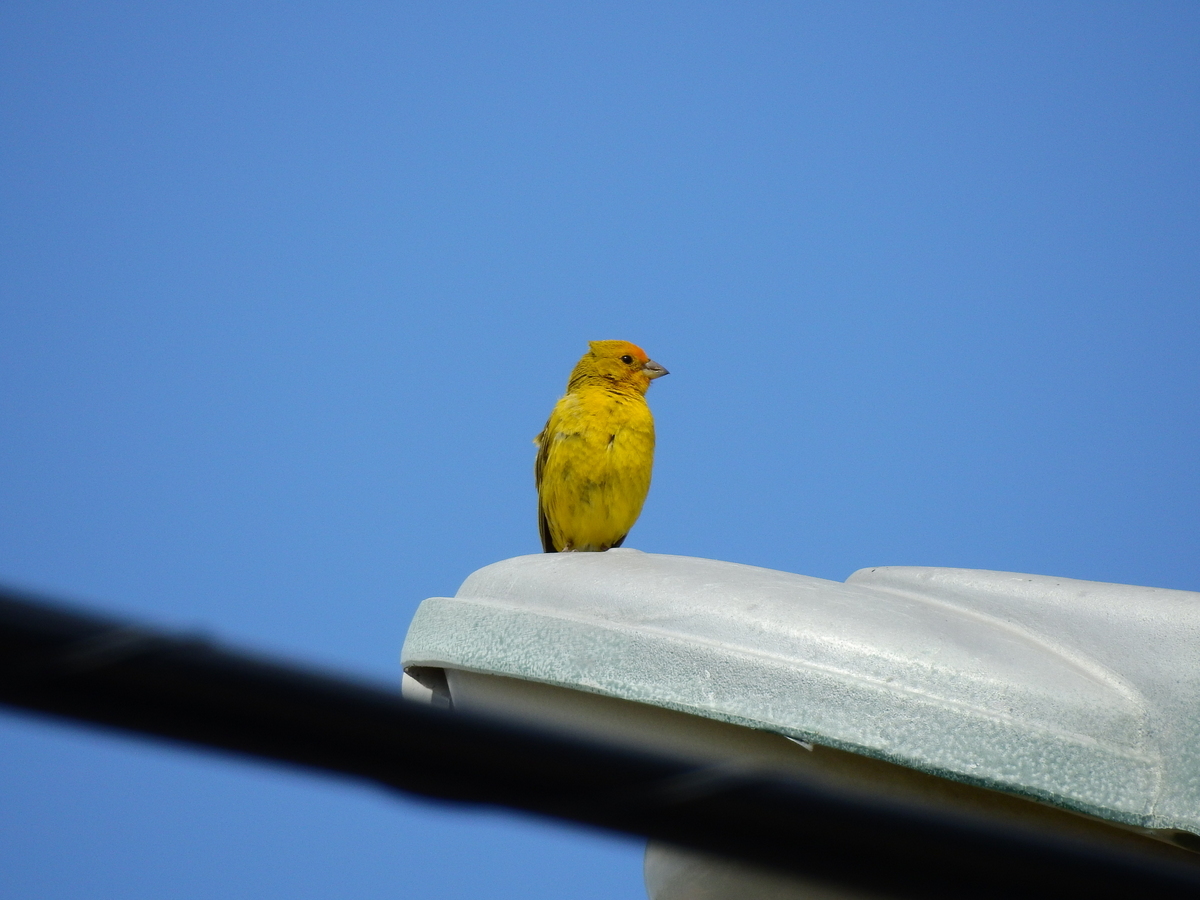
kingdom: Animalia
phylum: Chordata
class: Aves
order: Passeriformes
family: Thraupidae
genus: Sicalis
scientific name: Sicalis flaveola
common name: Saffron finch
